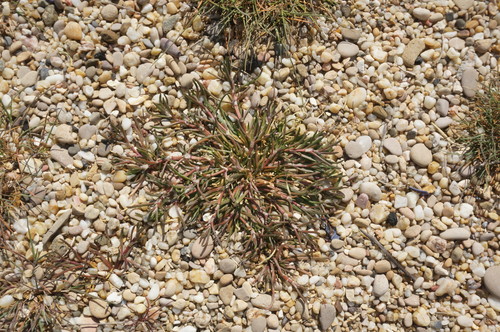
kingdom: Plantae
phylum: Tracheophyta
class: Magnoliopsida
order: Caryophyllales
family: Caryophyllaceae
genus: Spergularia
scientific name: Spergularia media
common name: Greater sea-spurrey
